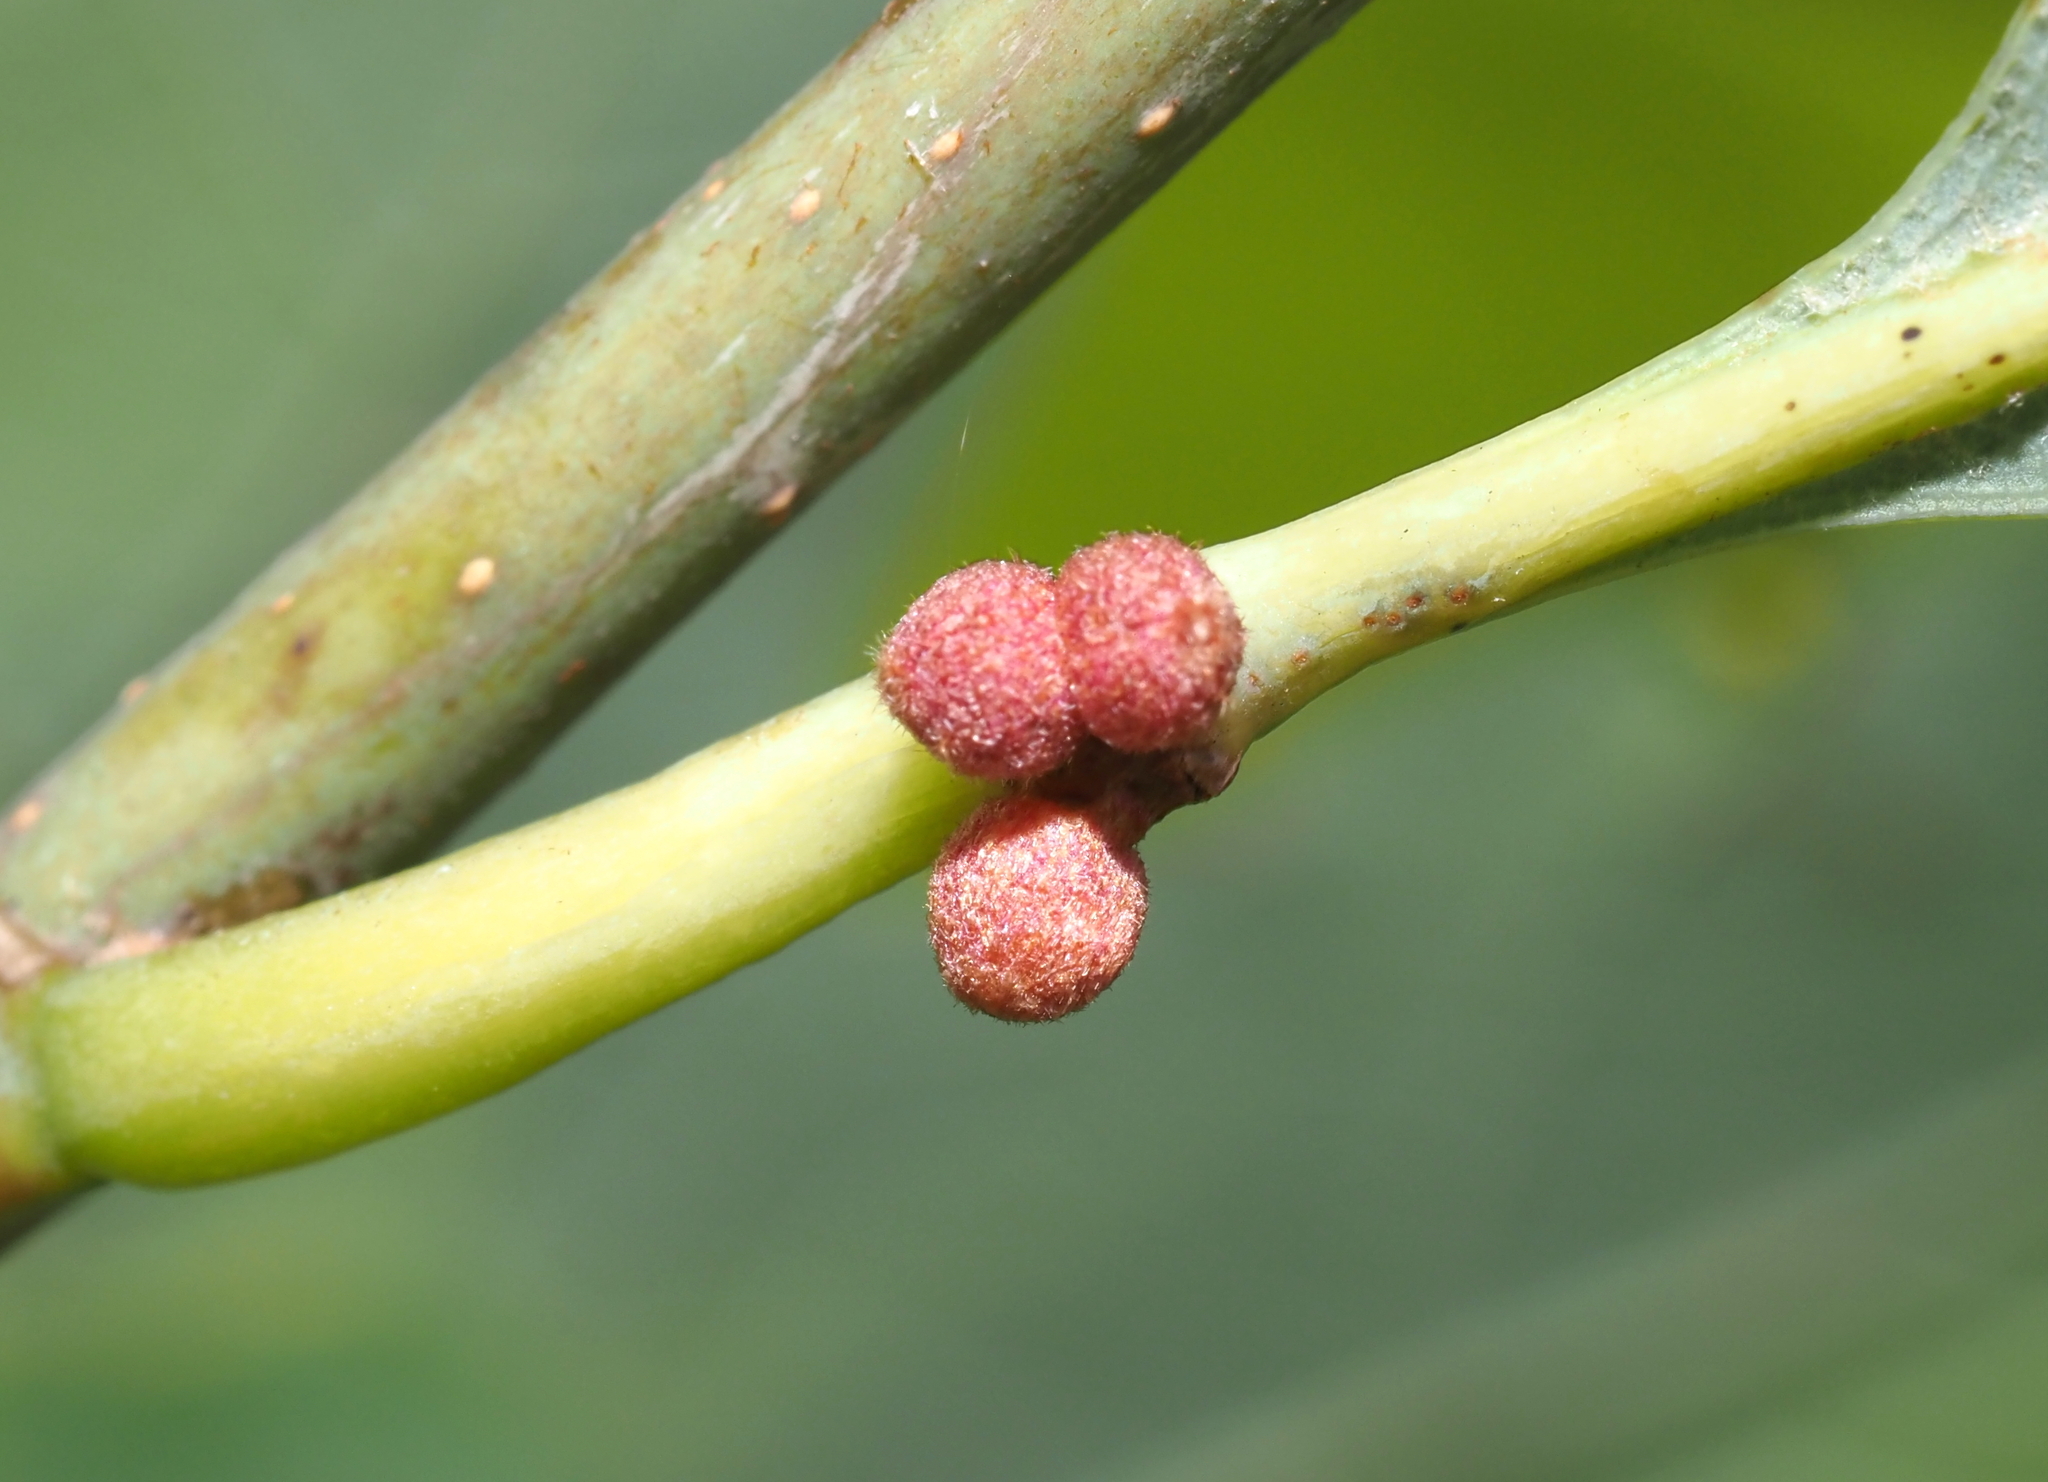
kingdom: Animalia
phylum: Arthropoda
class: Insecta
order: Hymenoptera
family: Cynipidae
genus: Andricus
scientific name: Andricus
